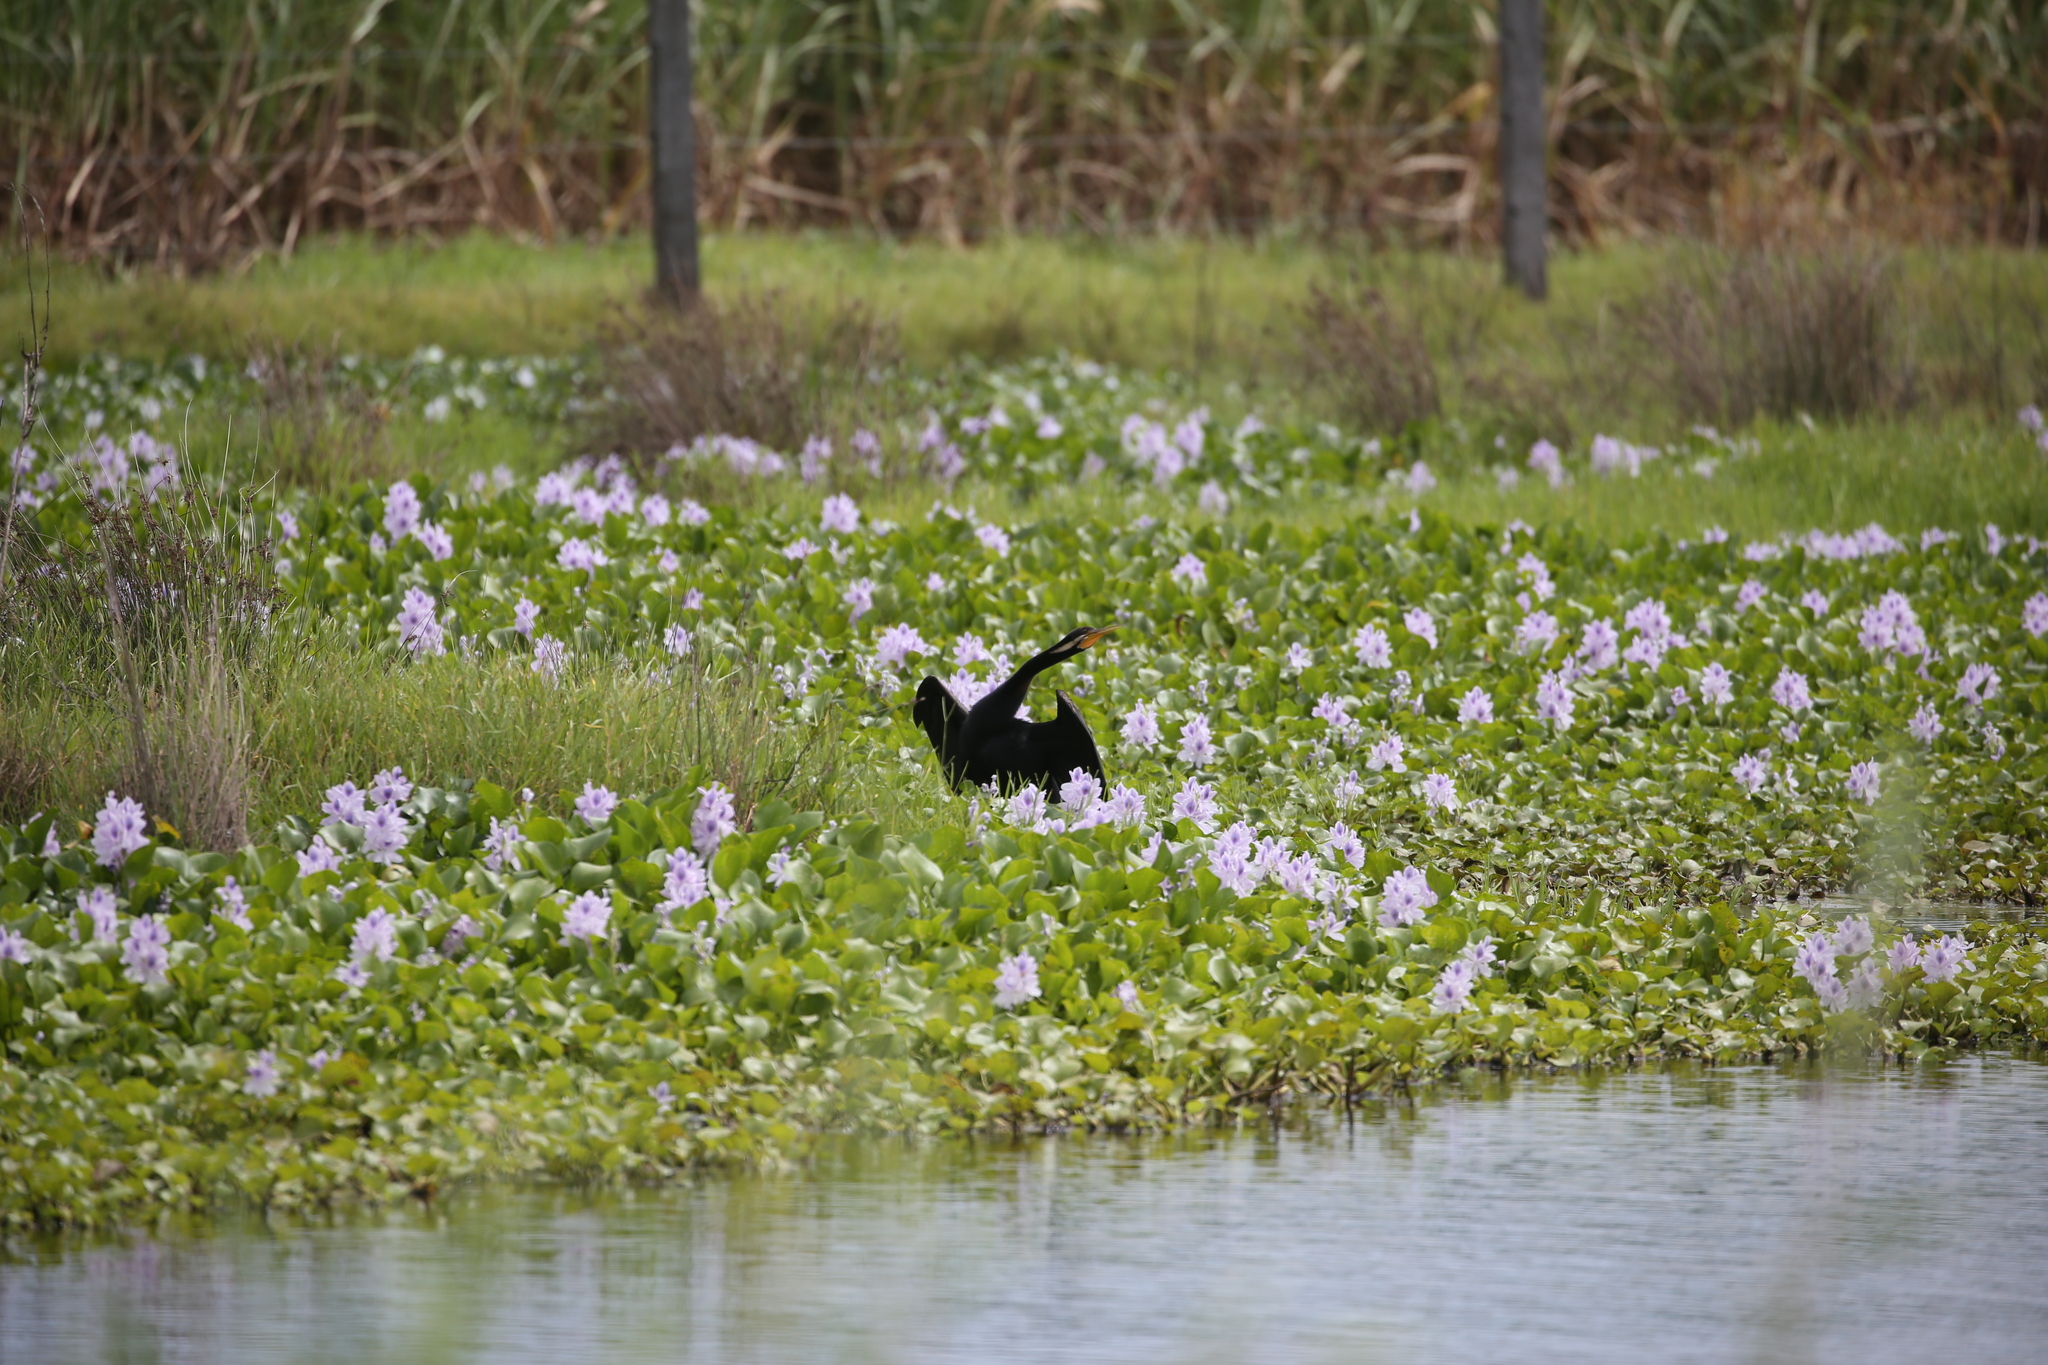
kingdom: Animalia
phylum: Chordata
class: Aves
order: Suliformes
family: Anhingidae
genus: Anhinga
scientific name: Anhinga novaehollandiae
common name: Australasian darter
